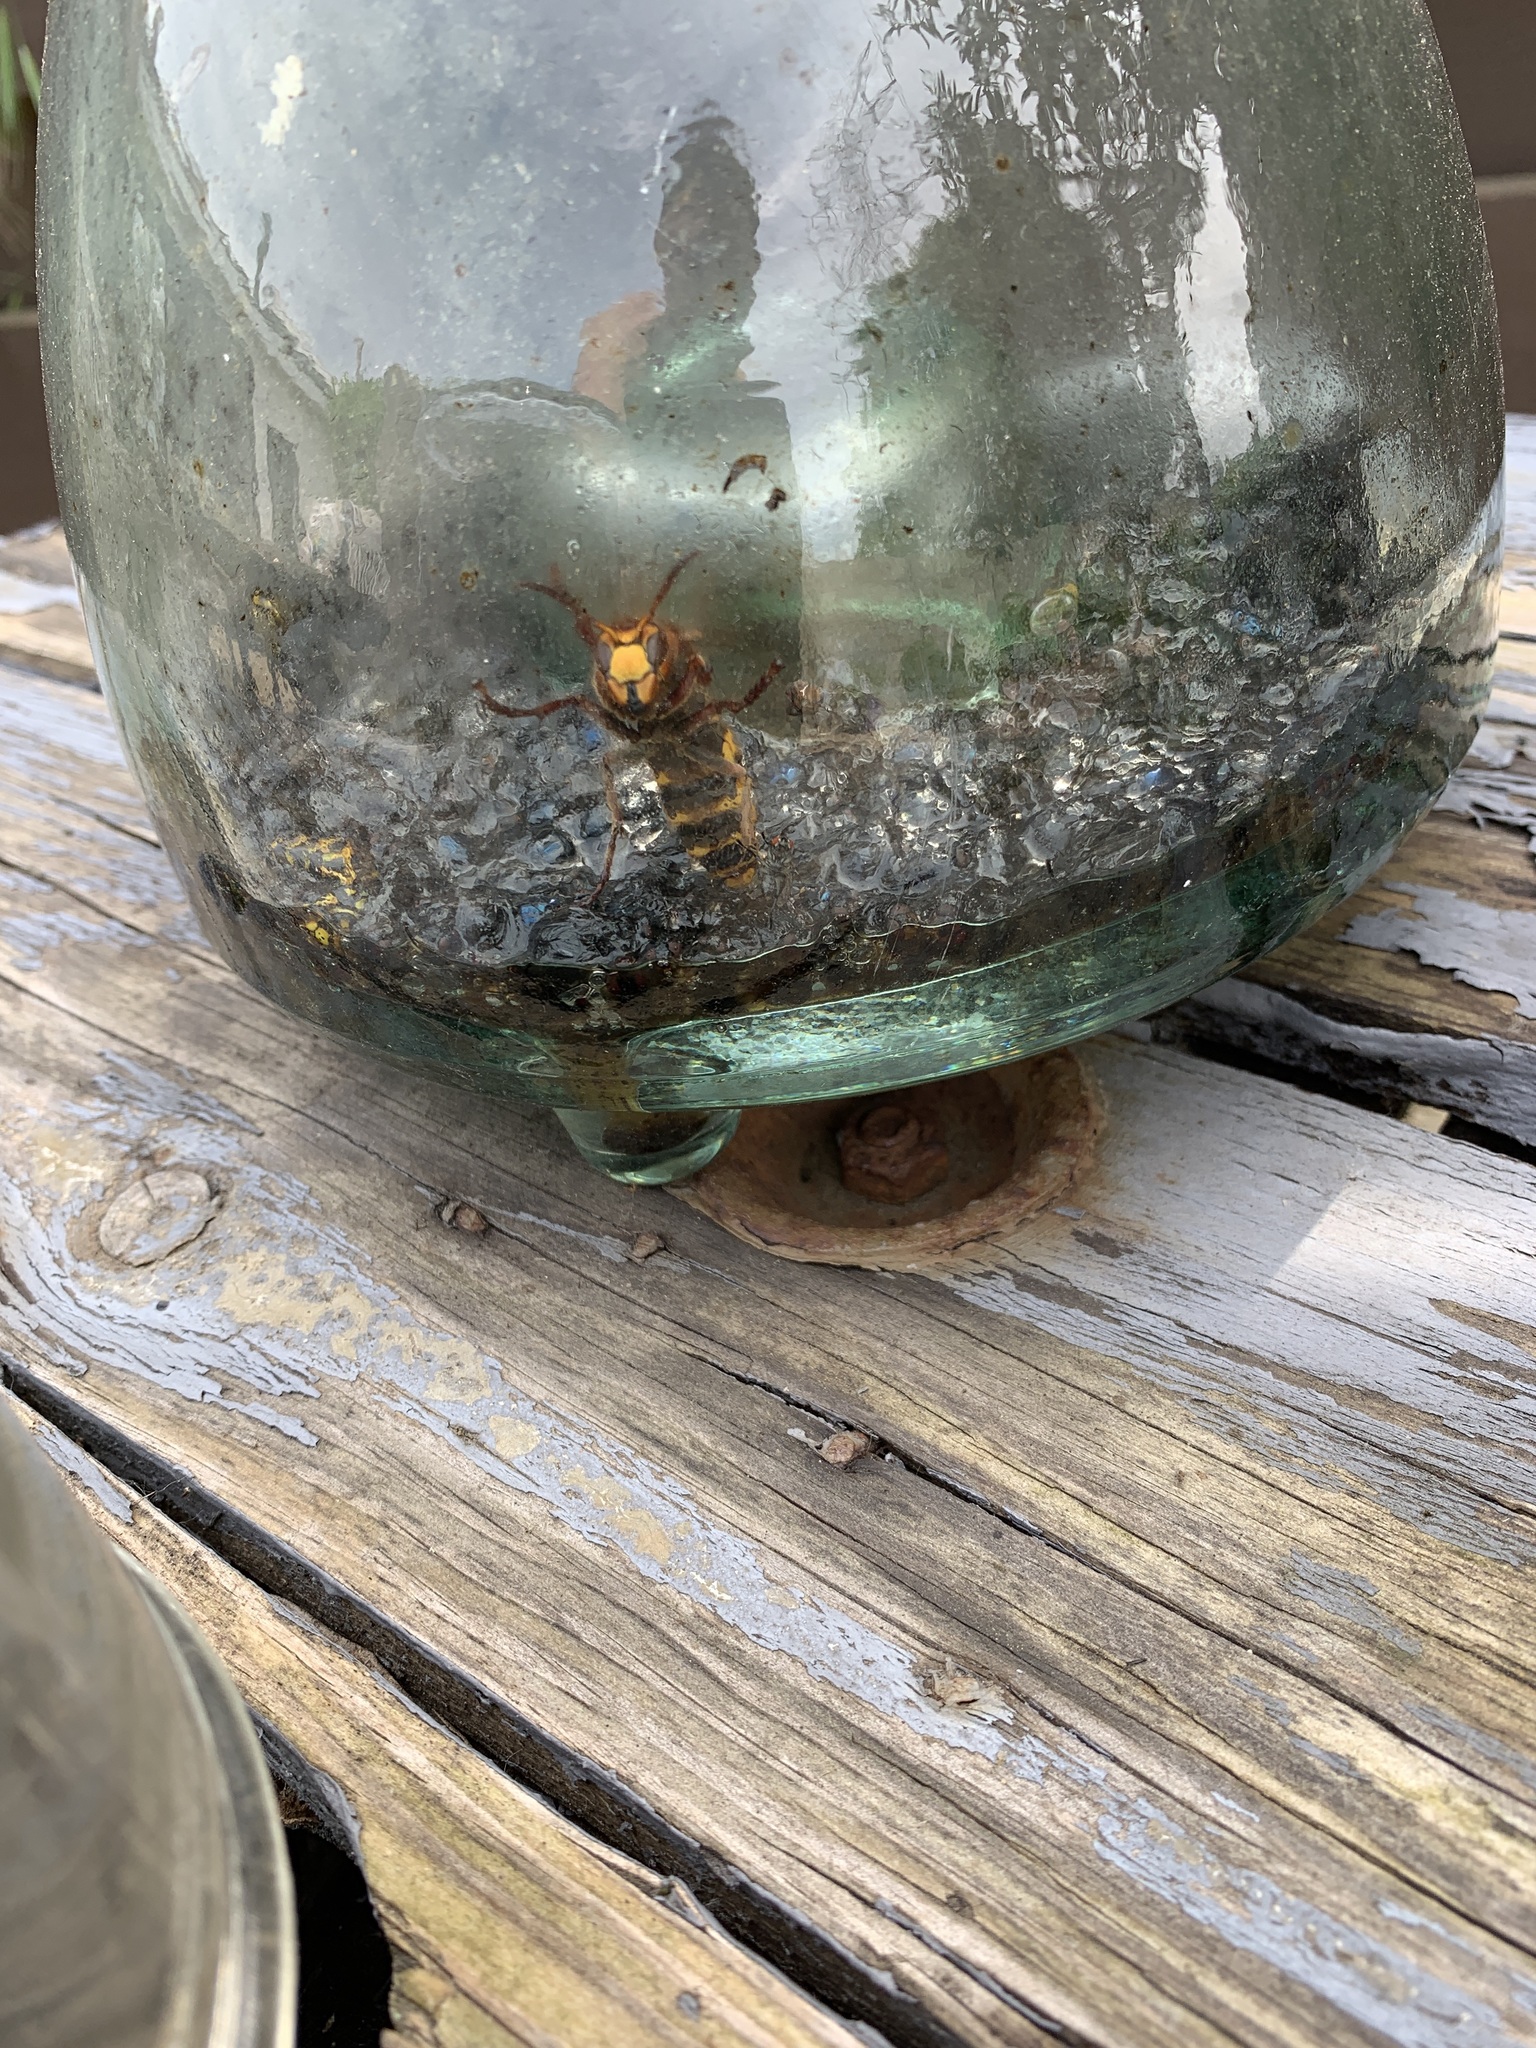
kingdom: Animalia
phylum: Arthropoda
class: Insecta
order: Hymenoptera
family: Vespidae
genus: Vespa
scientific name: Vespa crabro
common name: Hornet
